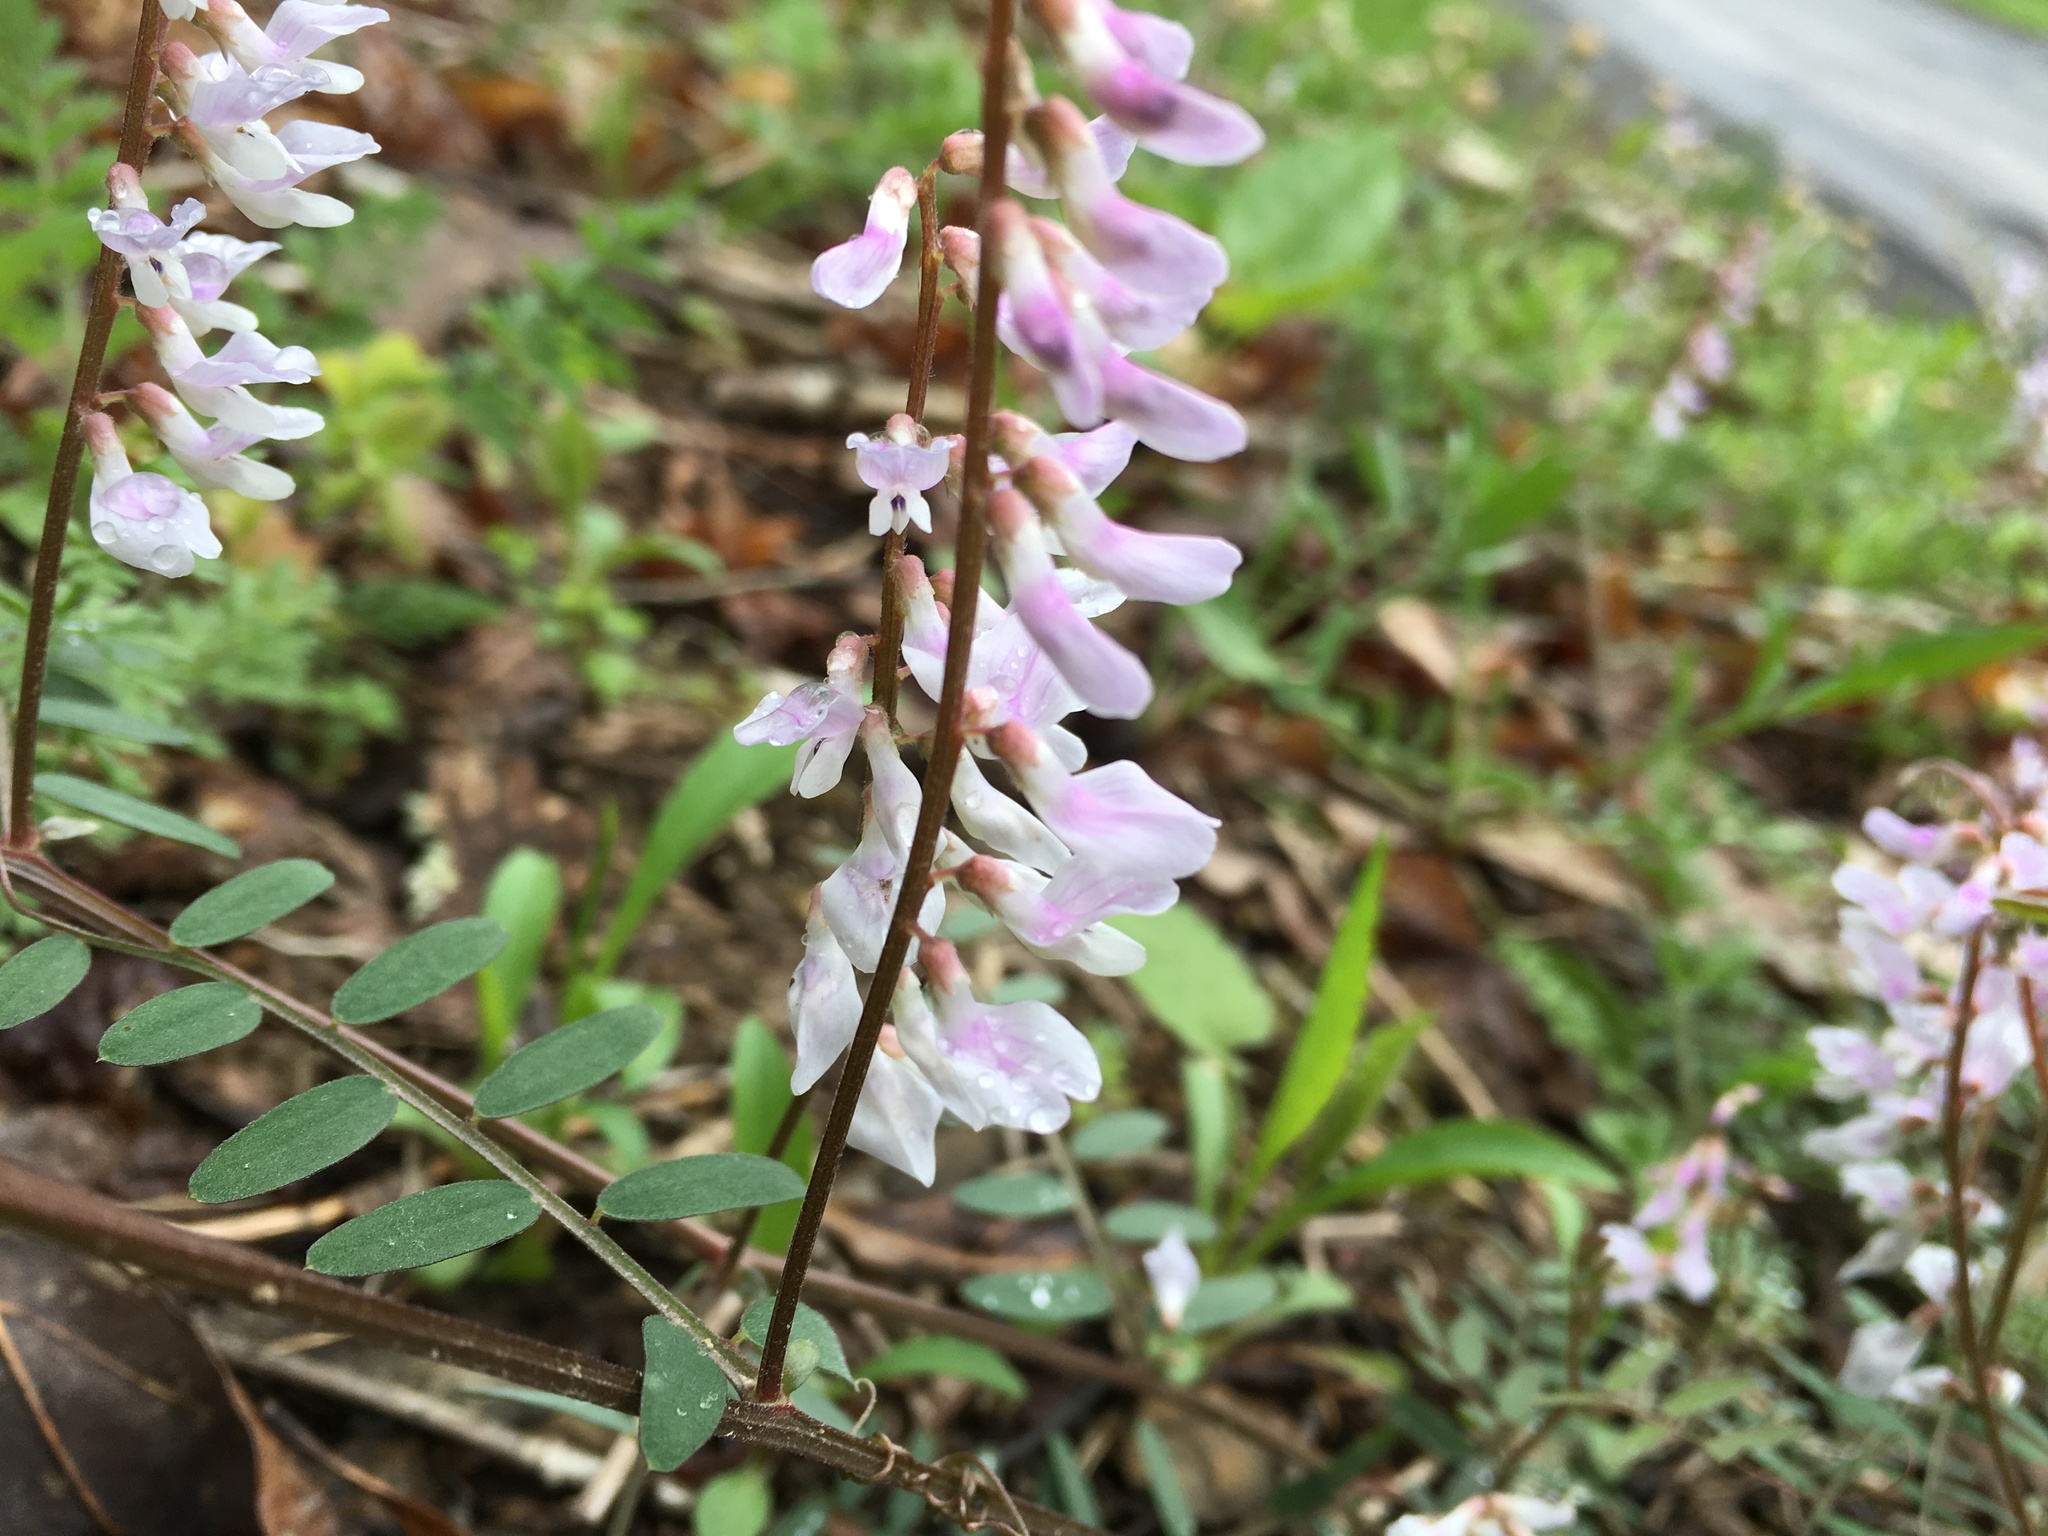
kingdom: Plantae
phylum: Tracheophyta
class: Magnoliopsida
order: Fabales
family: Fabaceae
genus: Vicia
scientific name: Vicia caroliniana
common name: Carolina vetch
